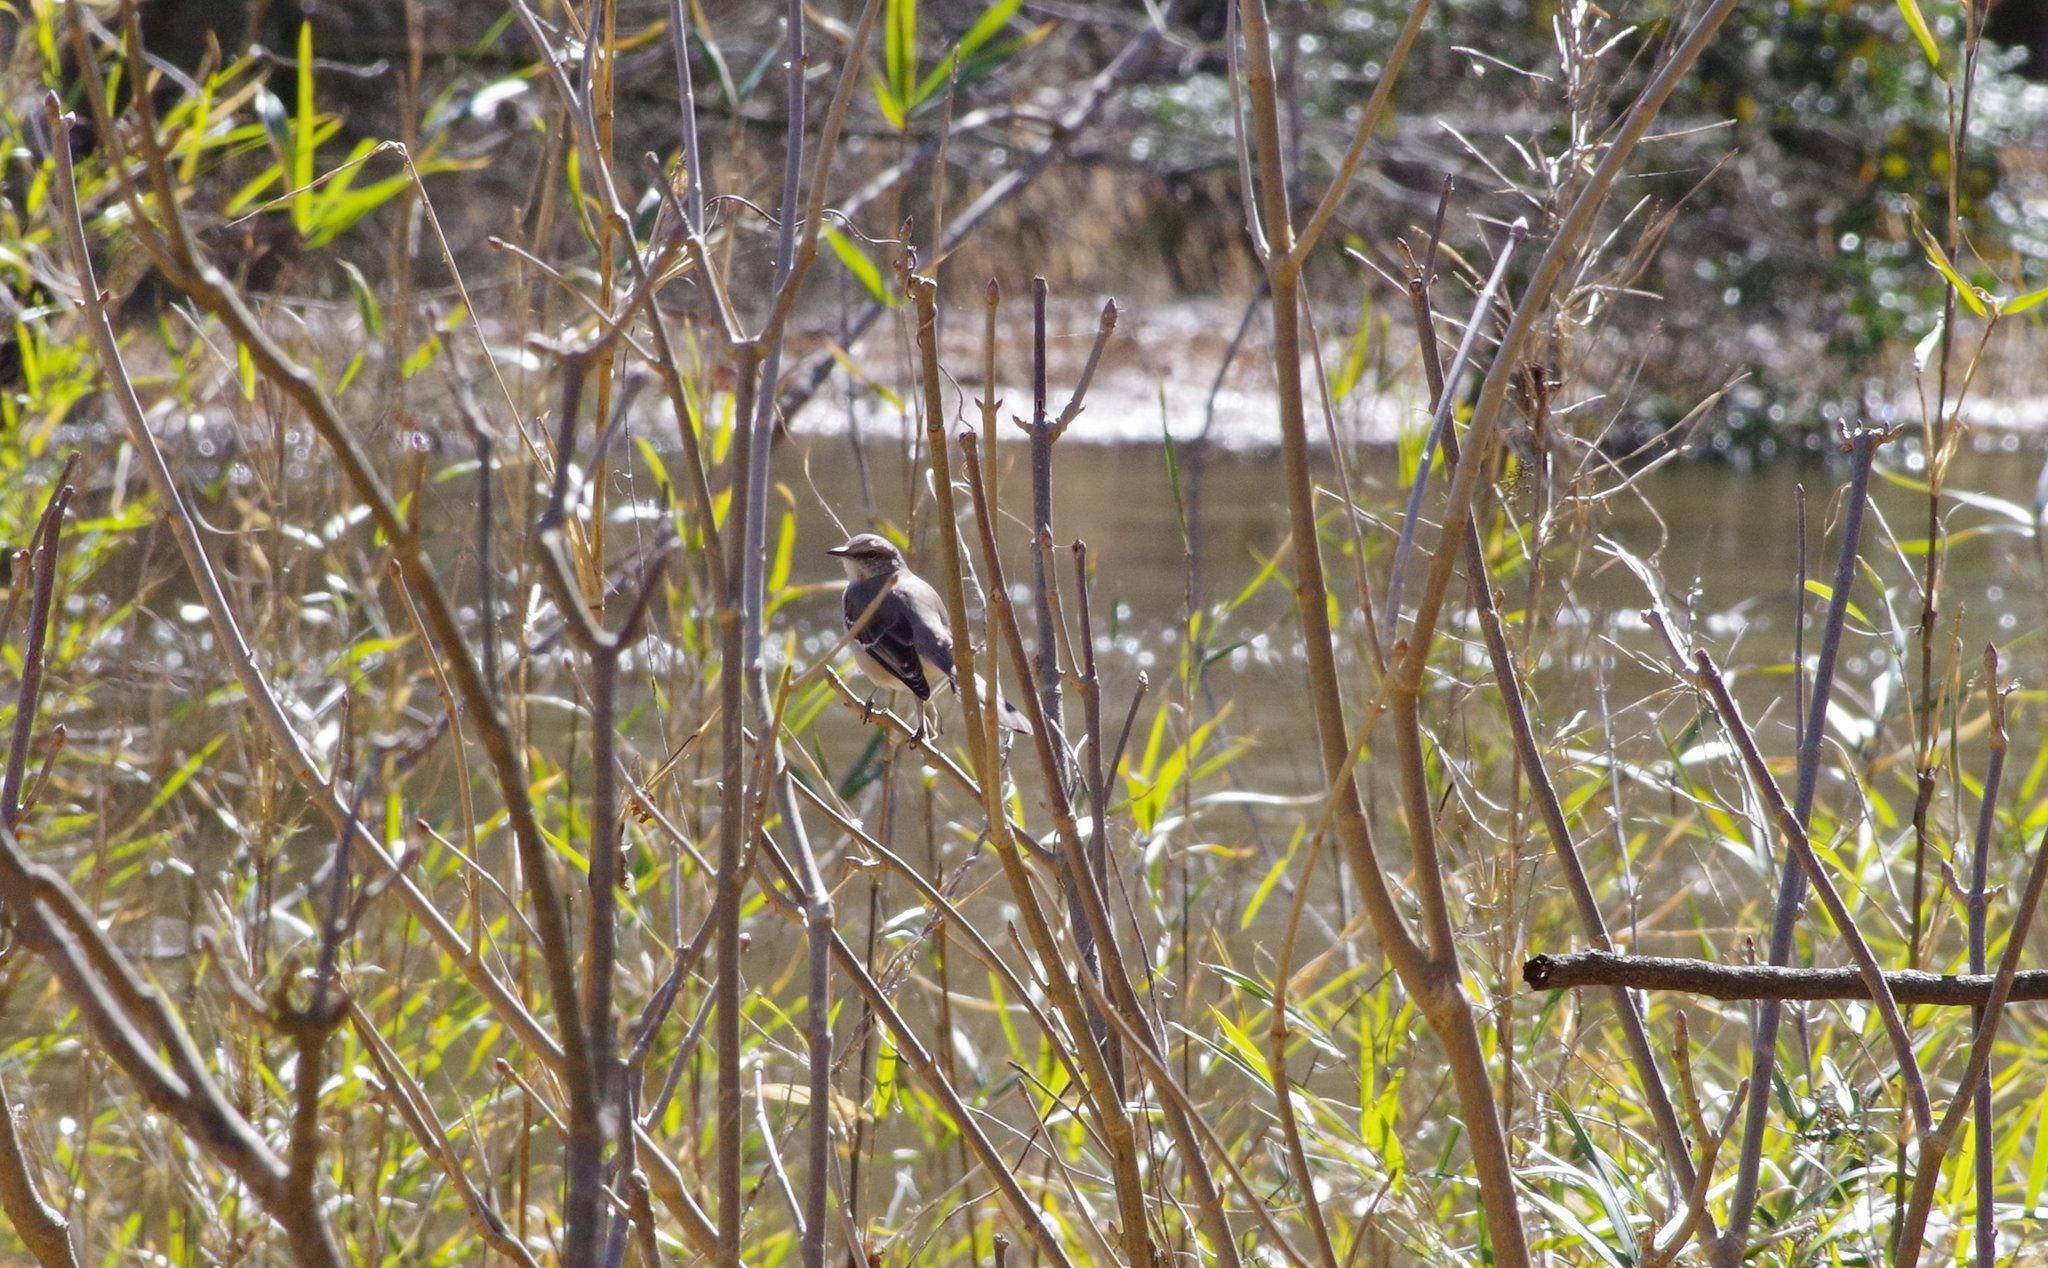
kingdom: Animalia
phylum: Chordata
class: Aves
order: Passeriformes
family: Mimidae
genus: Mimus
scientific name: Mimus polyglottos
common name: Northern mockingbird
